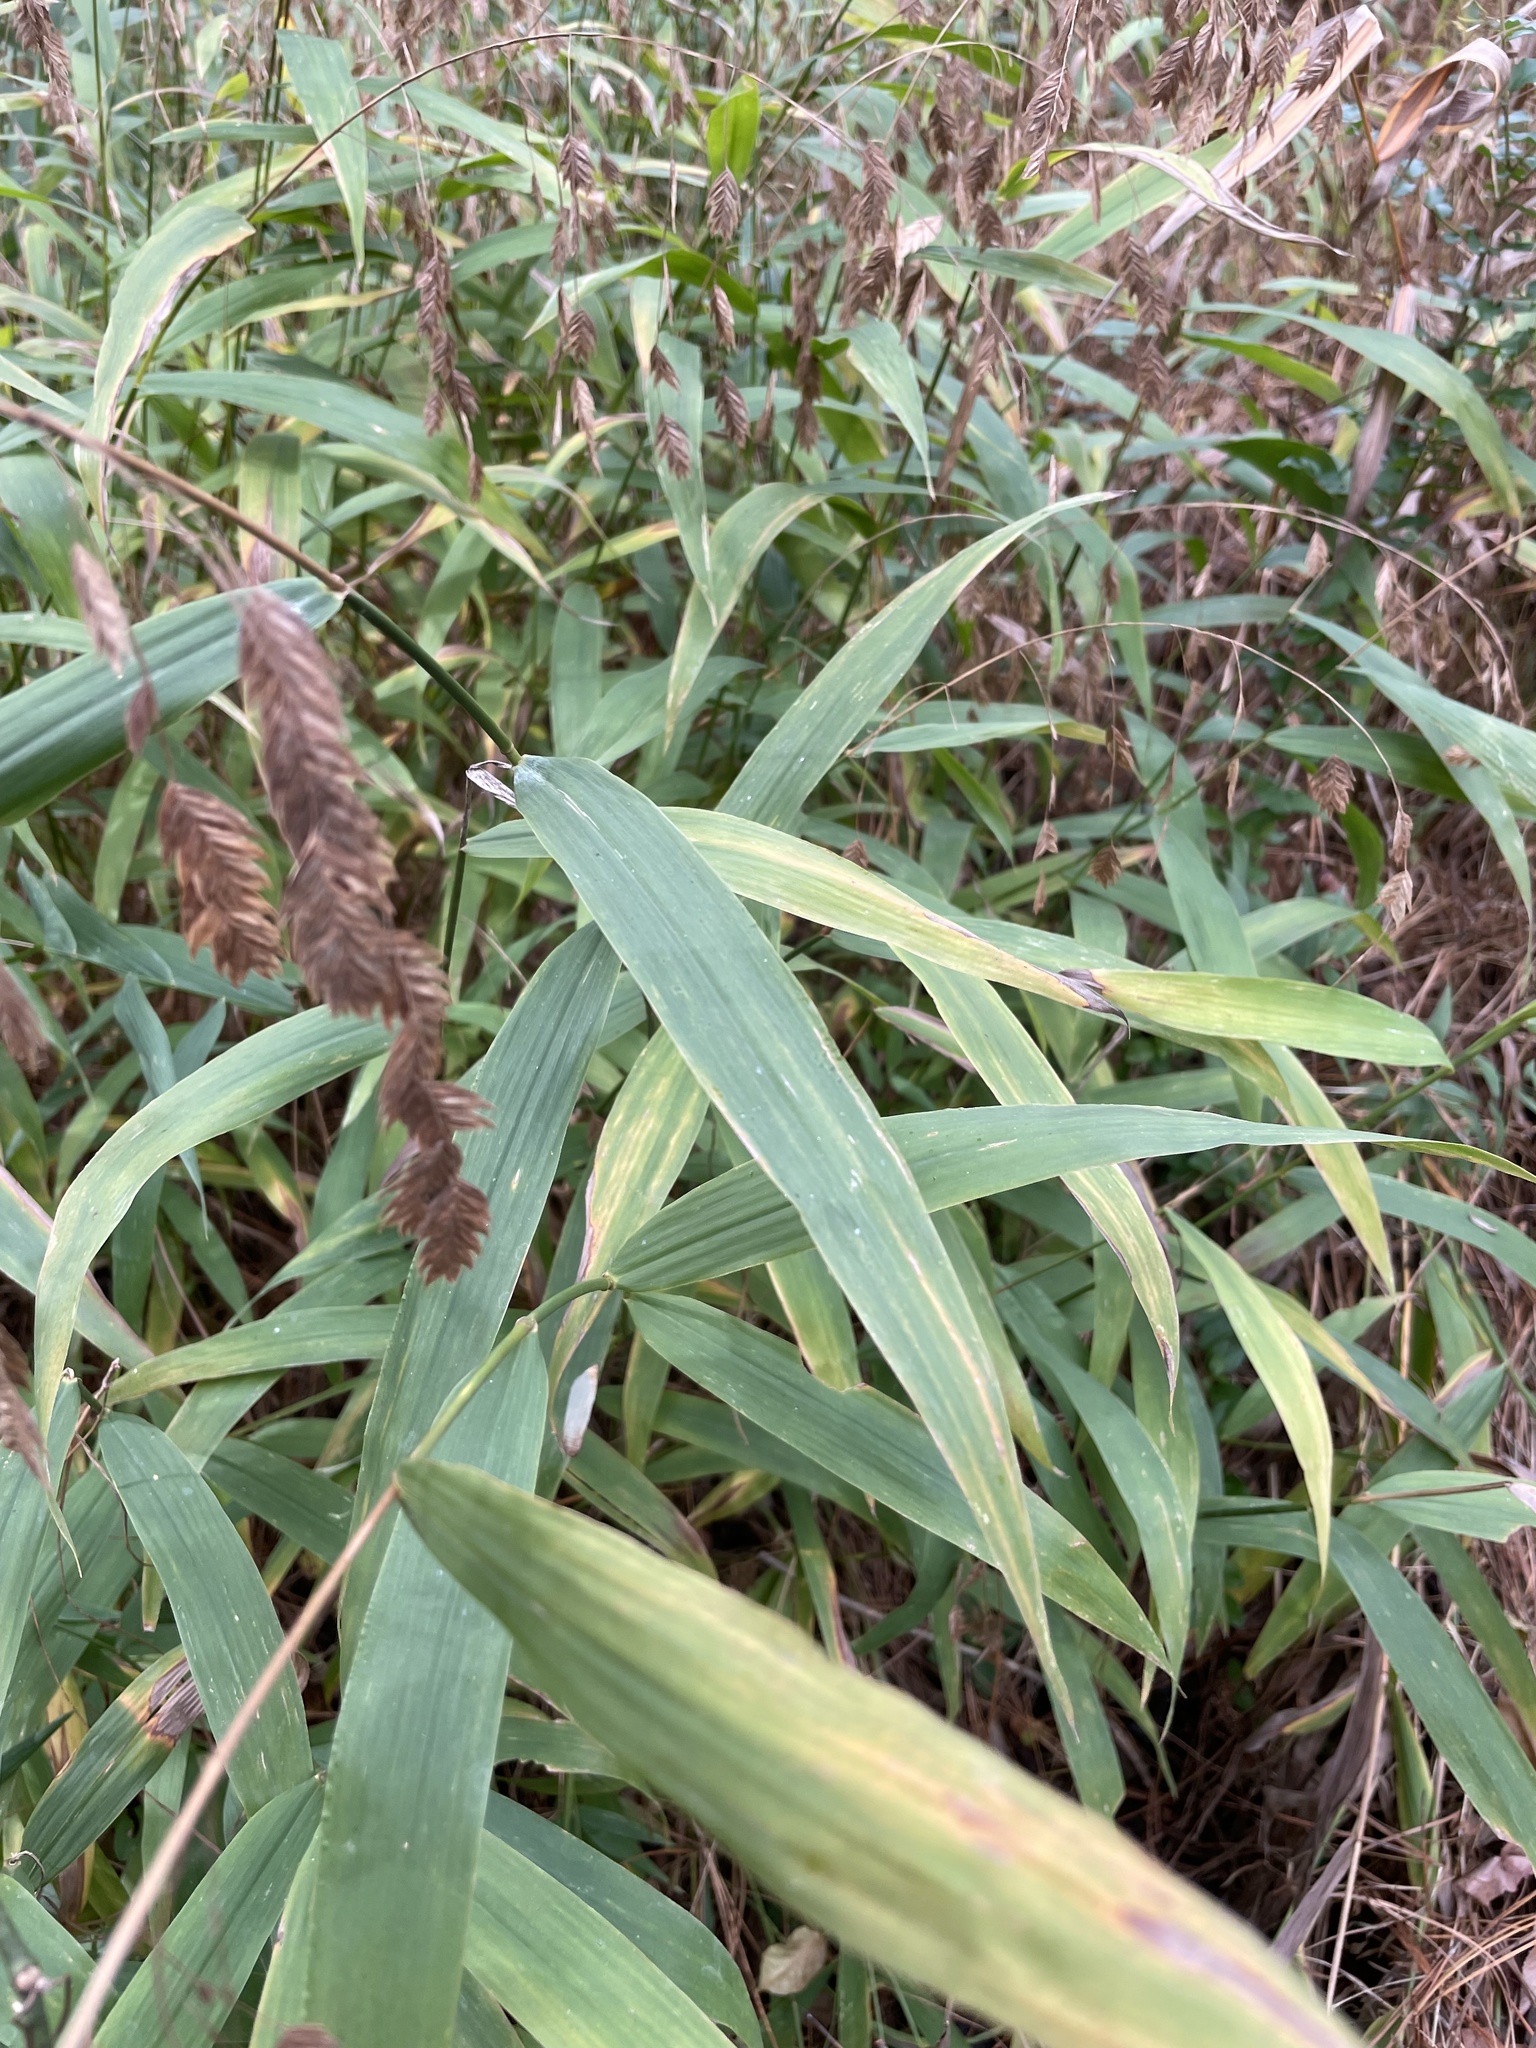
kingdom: Plantae
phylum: Tracheophyta
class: Liliopsida
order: Poales
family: Poaceae
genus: Chasmanthium
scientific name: Chasmanthium latifolium
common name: Broad-leaved chasmanthium
